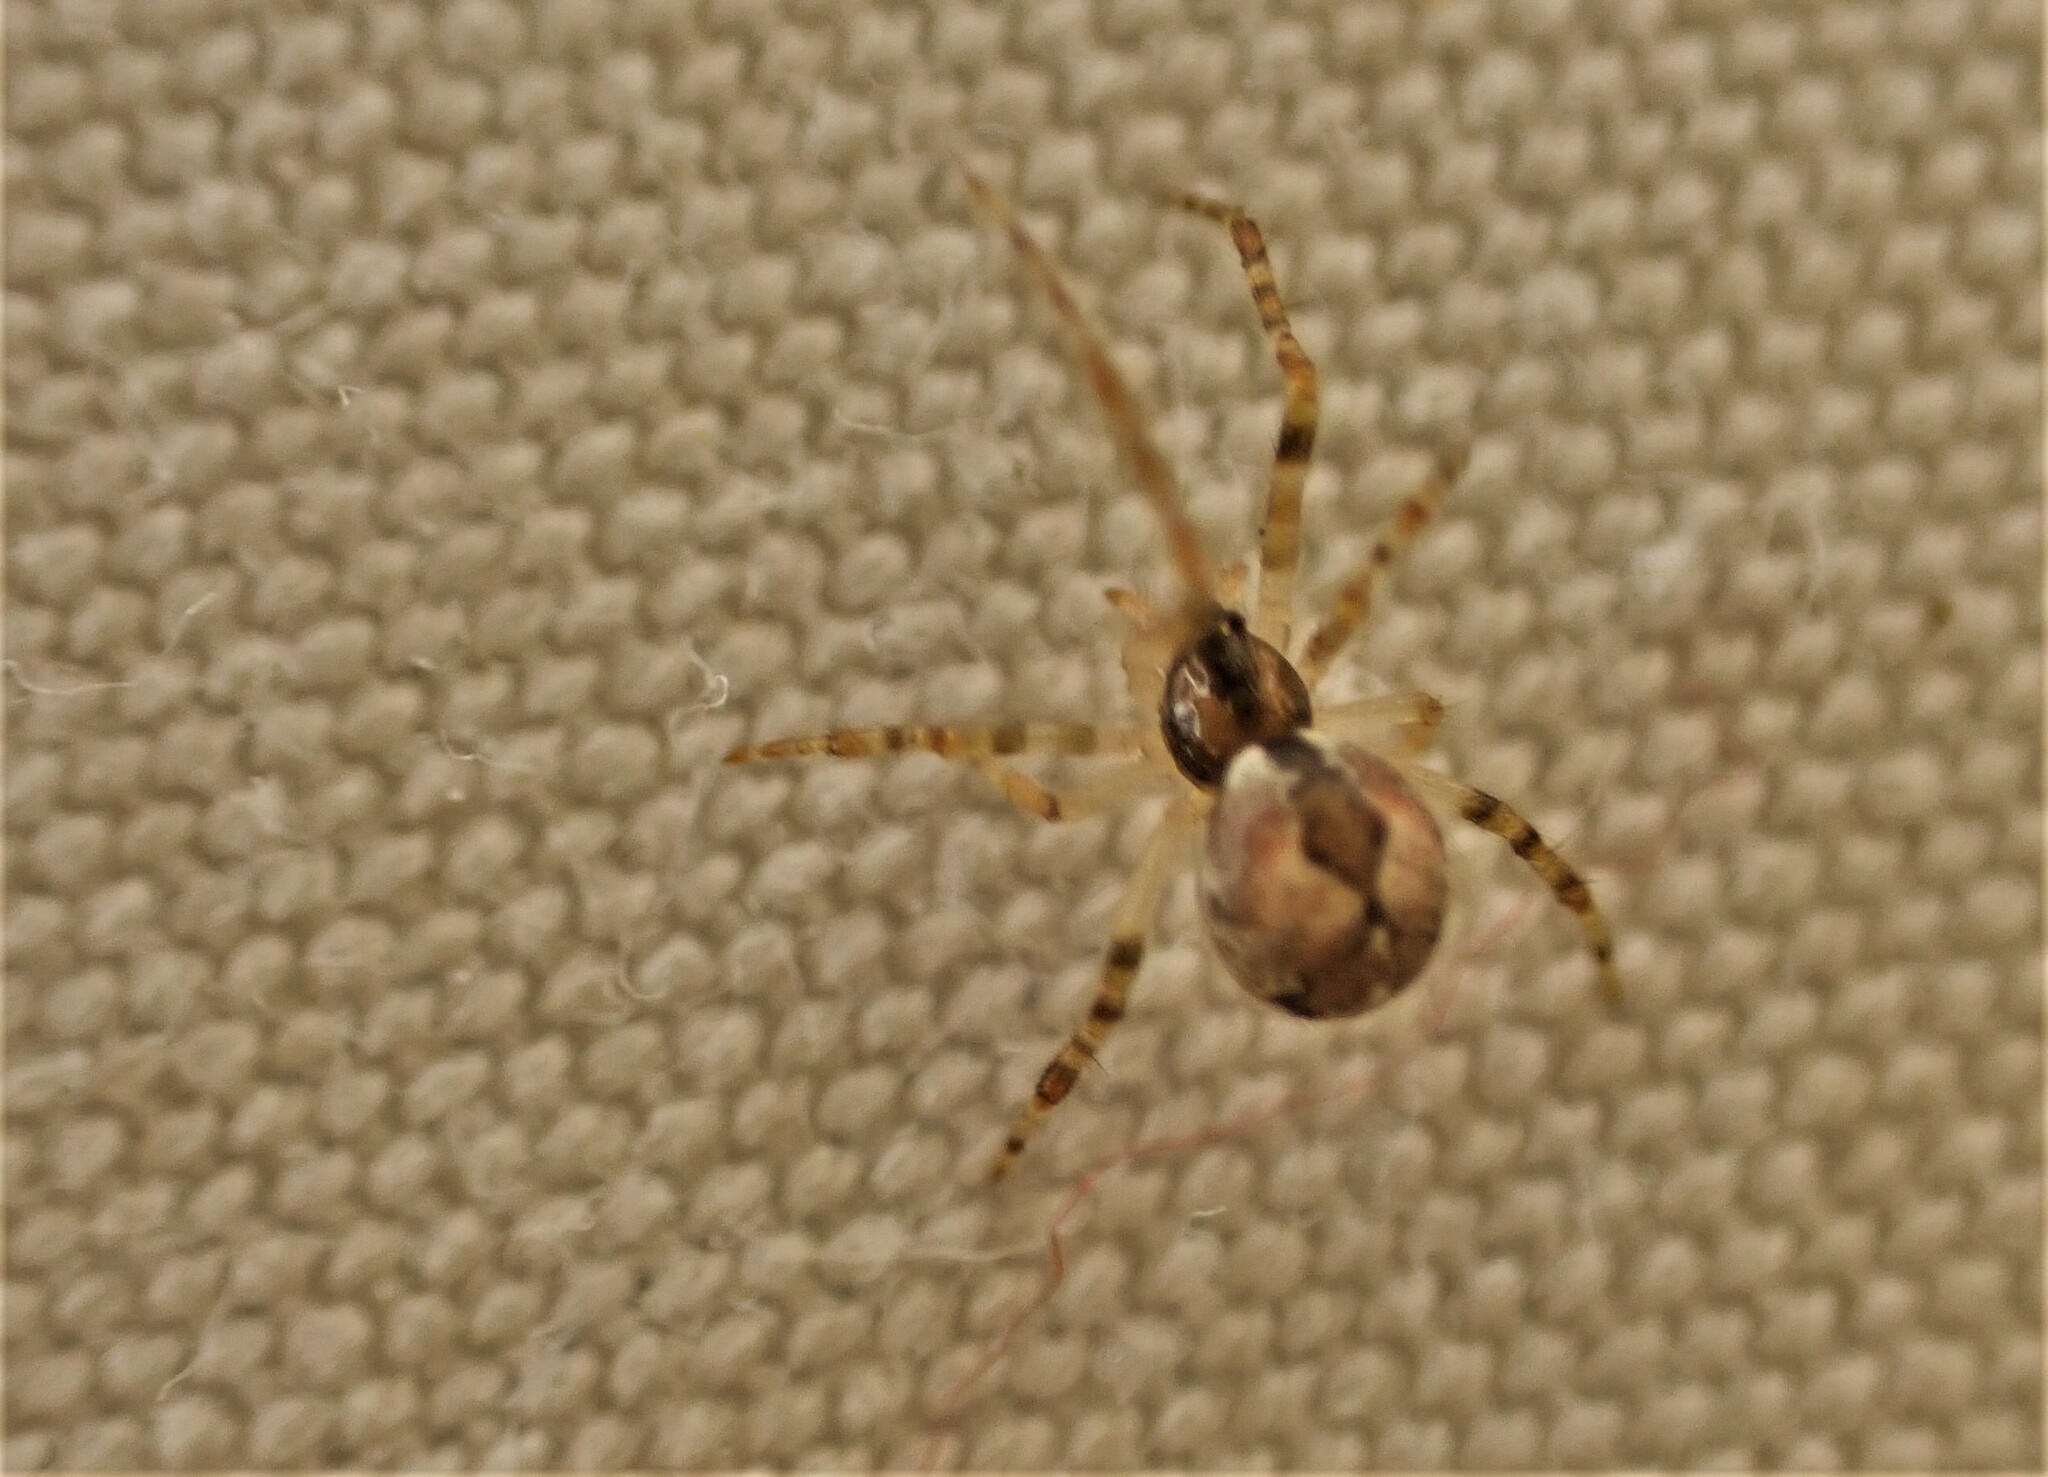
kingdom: Animalia
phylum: Arthropoda
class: Arachnida
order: Araneae
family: Theridiidae
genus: Cryptachaea
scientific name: Cryptachaea veruculata
